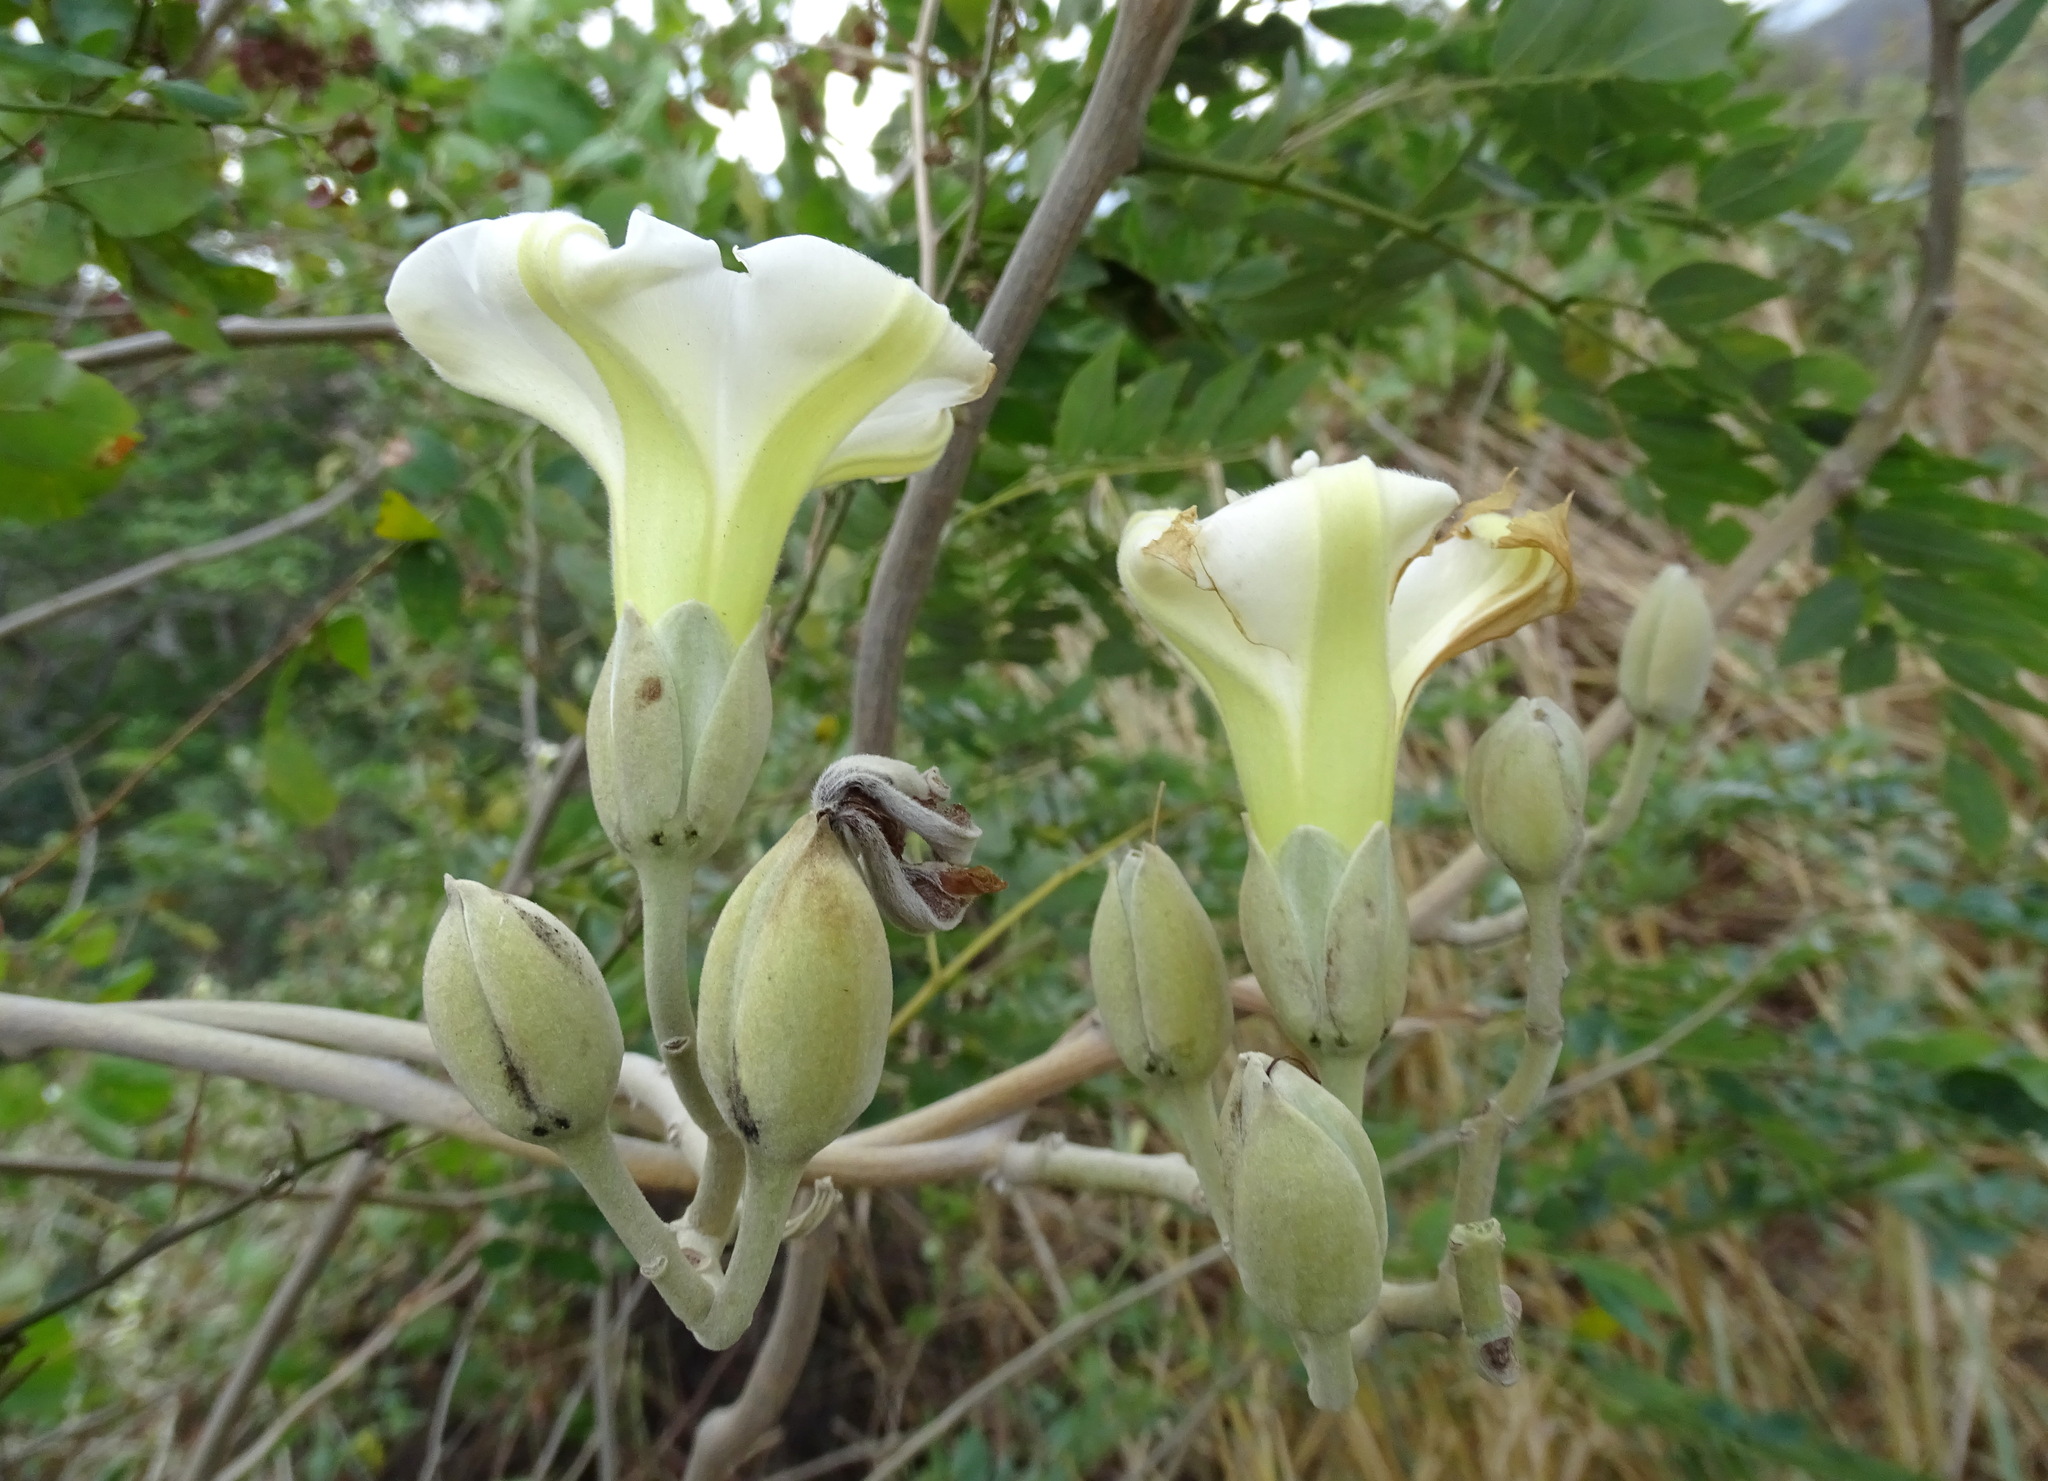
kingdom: Plantae
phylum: Tracheophyta
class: Magnoliopsida
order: Solanales
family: Convolvulaceae
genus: Ipomoea
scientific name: Ipomoea praecana
